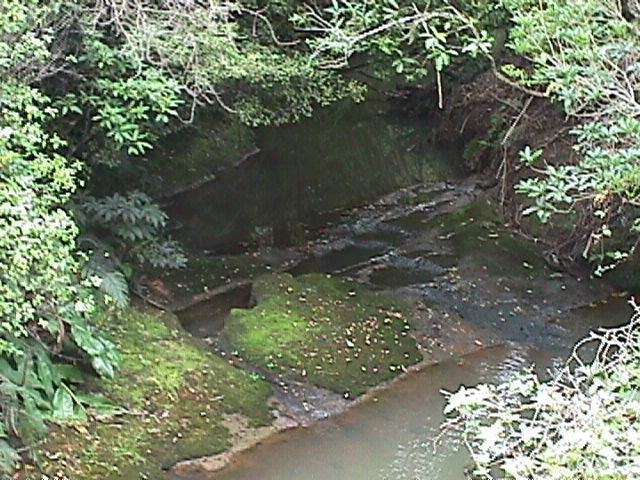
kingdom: Plantae
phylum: Tracheophyta
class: Liliopsida
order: Zingiberales
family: Zingiberaceae
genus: Hedychium
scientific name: Hedychium gardnerianum
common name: Himalayan ginger
